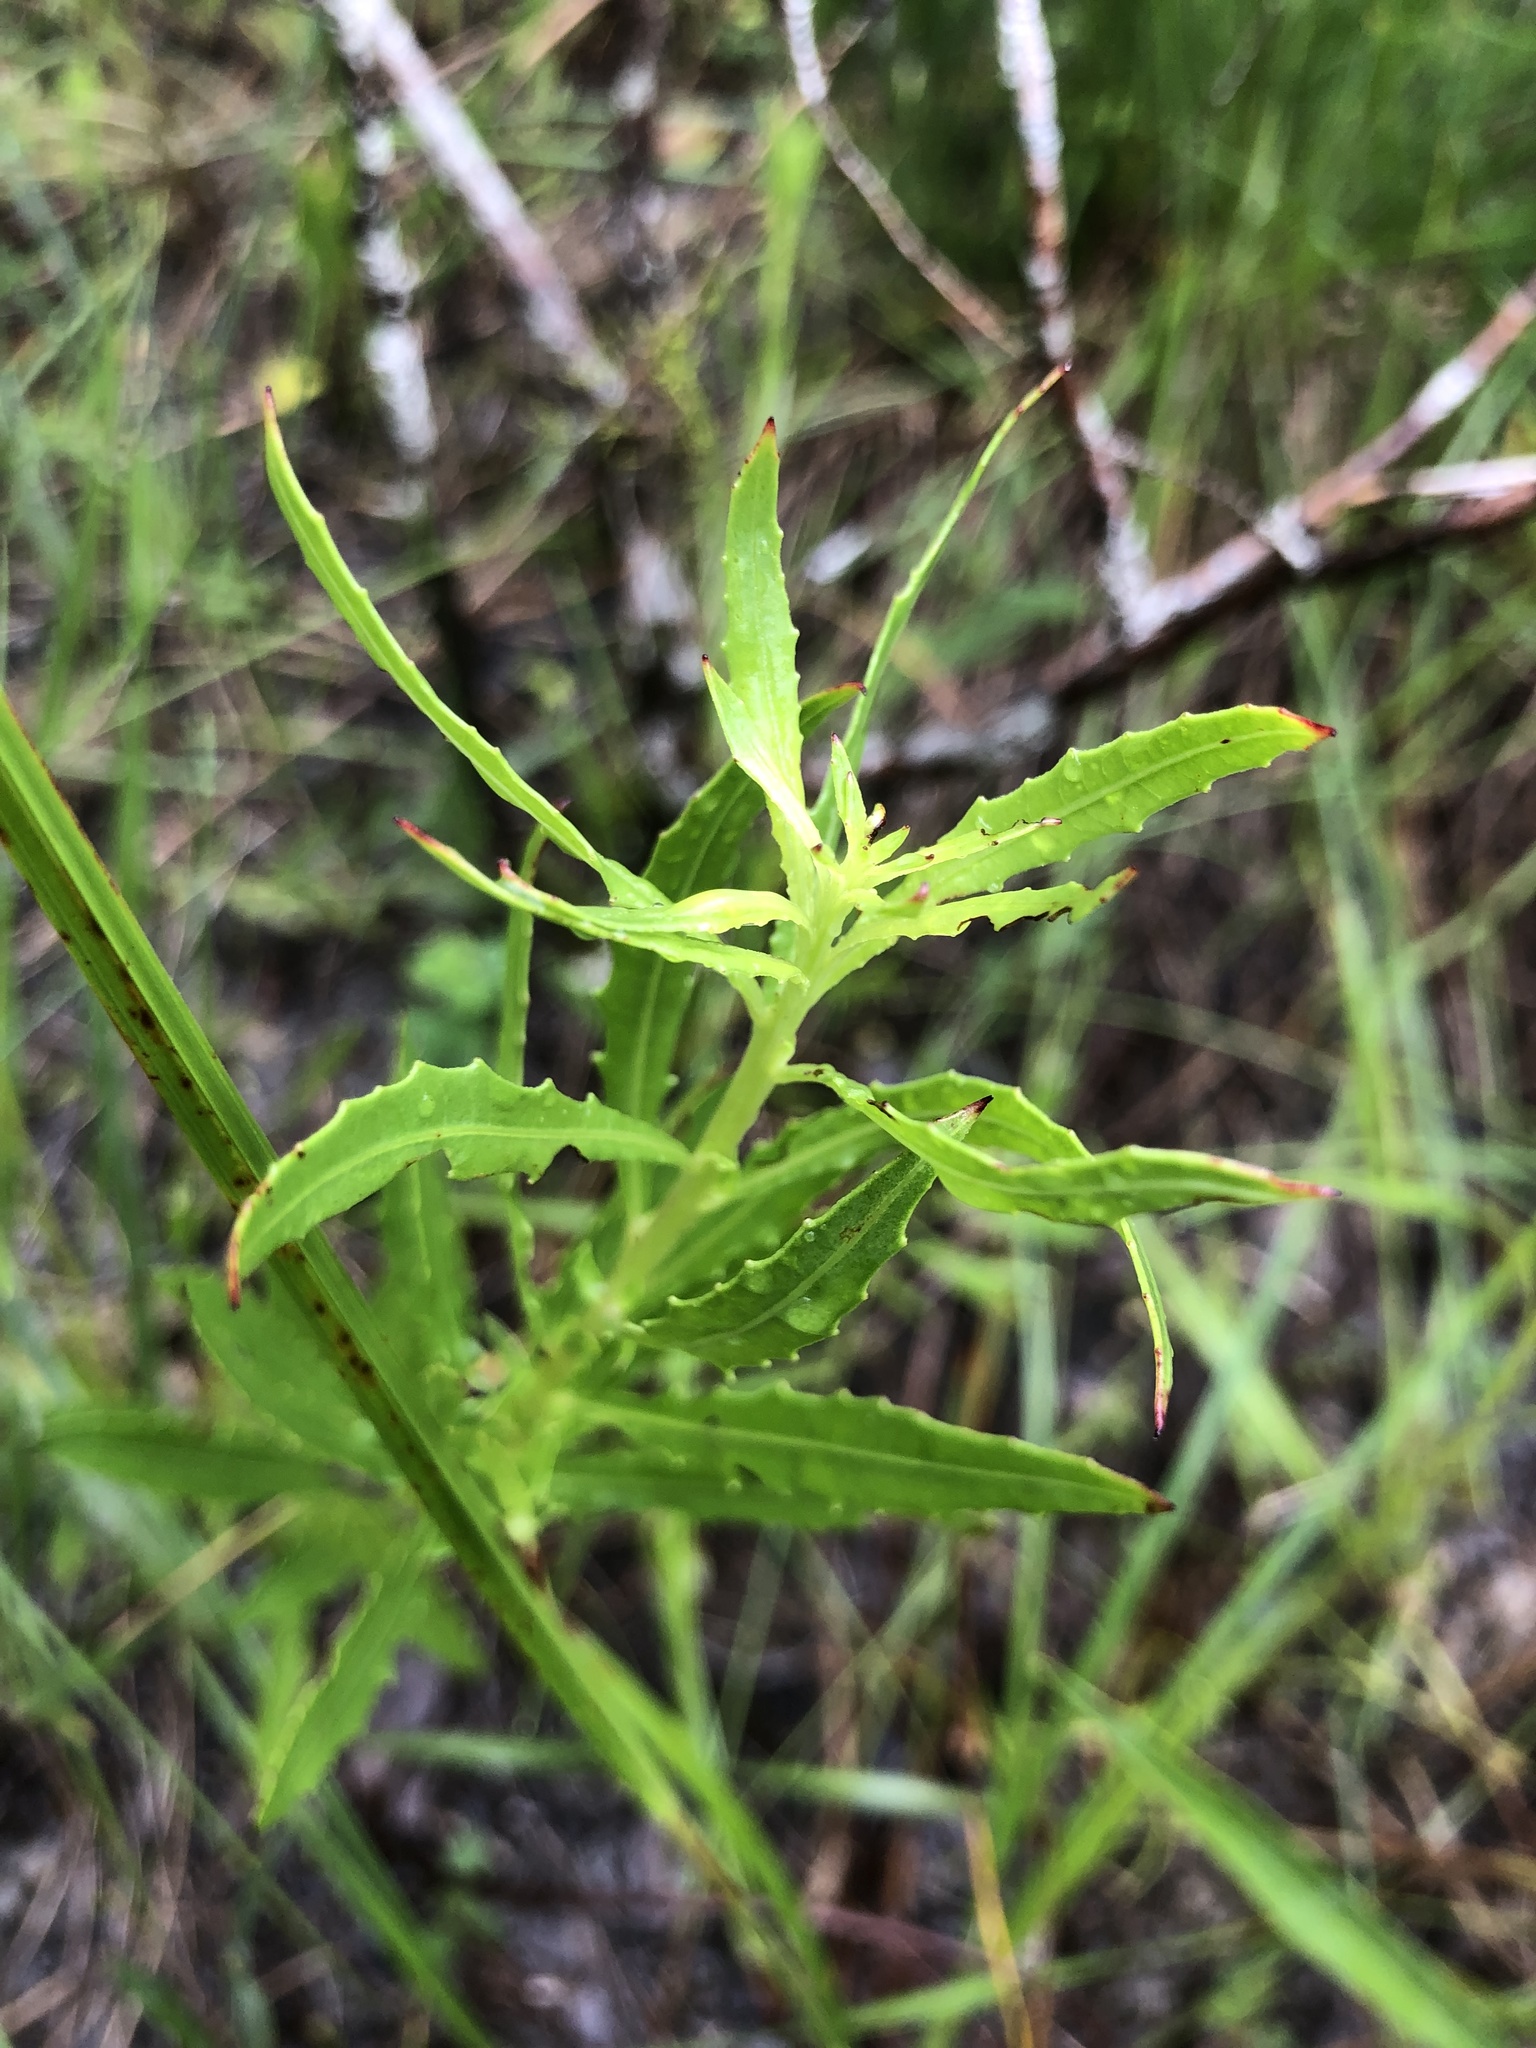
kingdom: Plantae
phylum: Tracheophyta
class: Magnoliopsida
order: Myrtales
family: Onagraceae
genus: Oenothera
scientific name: Oenothera filipes
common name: Slenderstalk beeblossom
